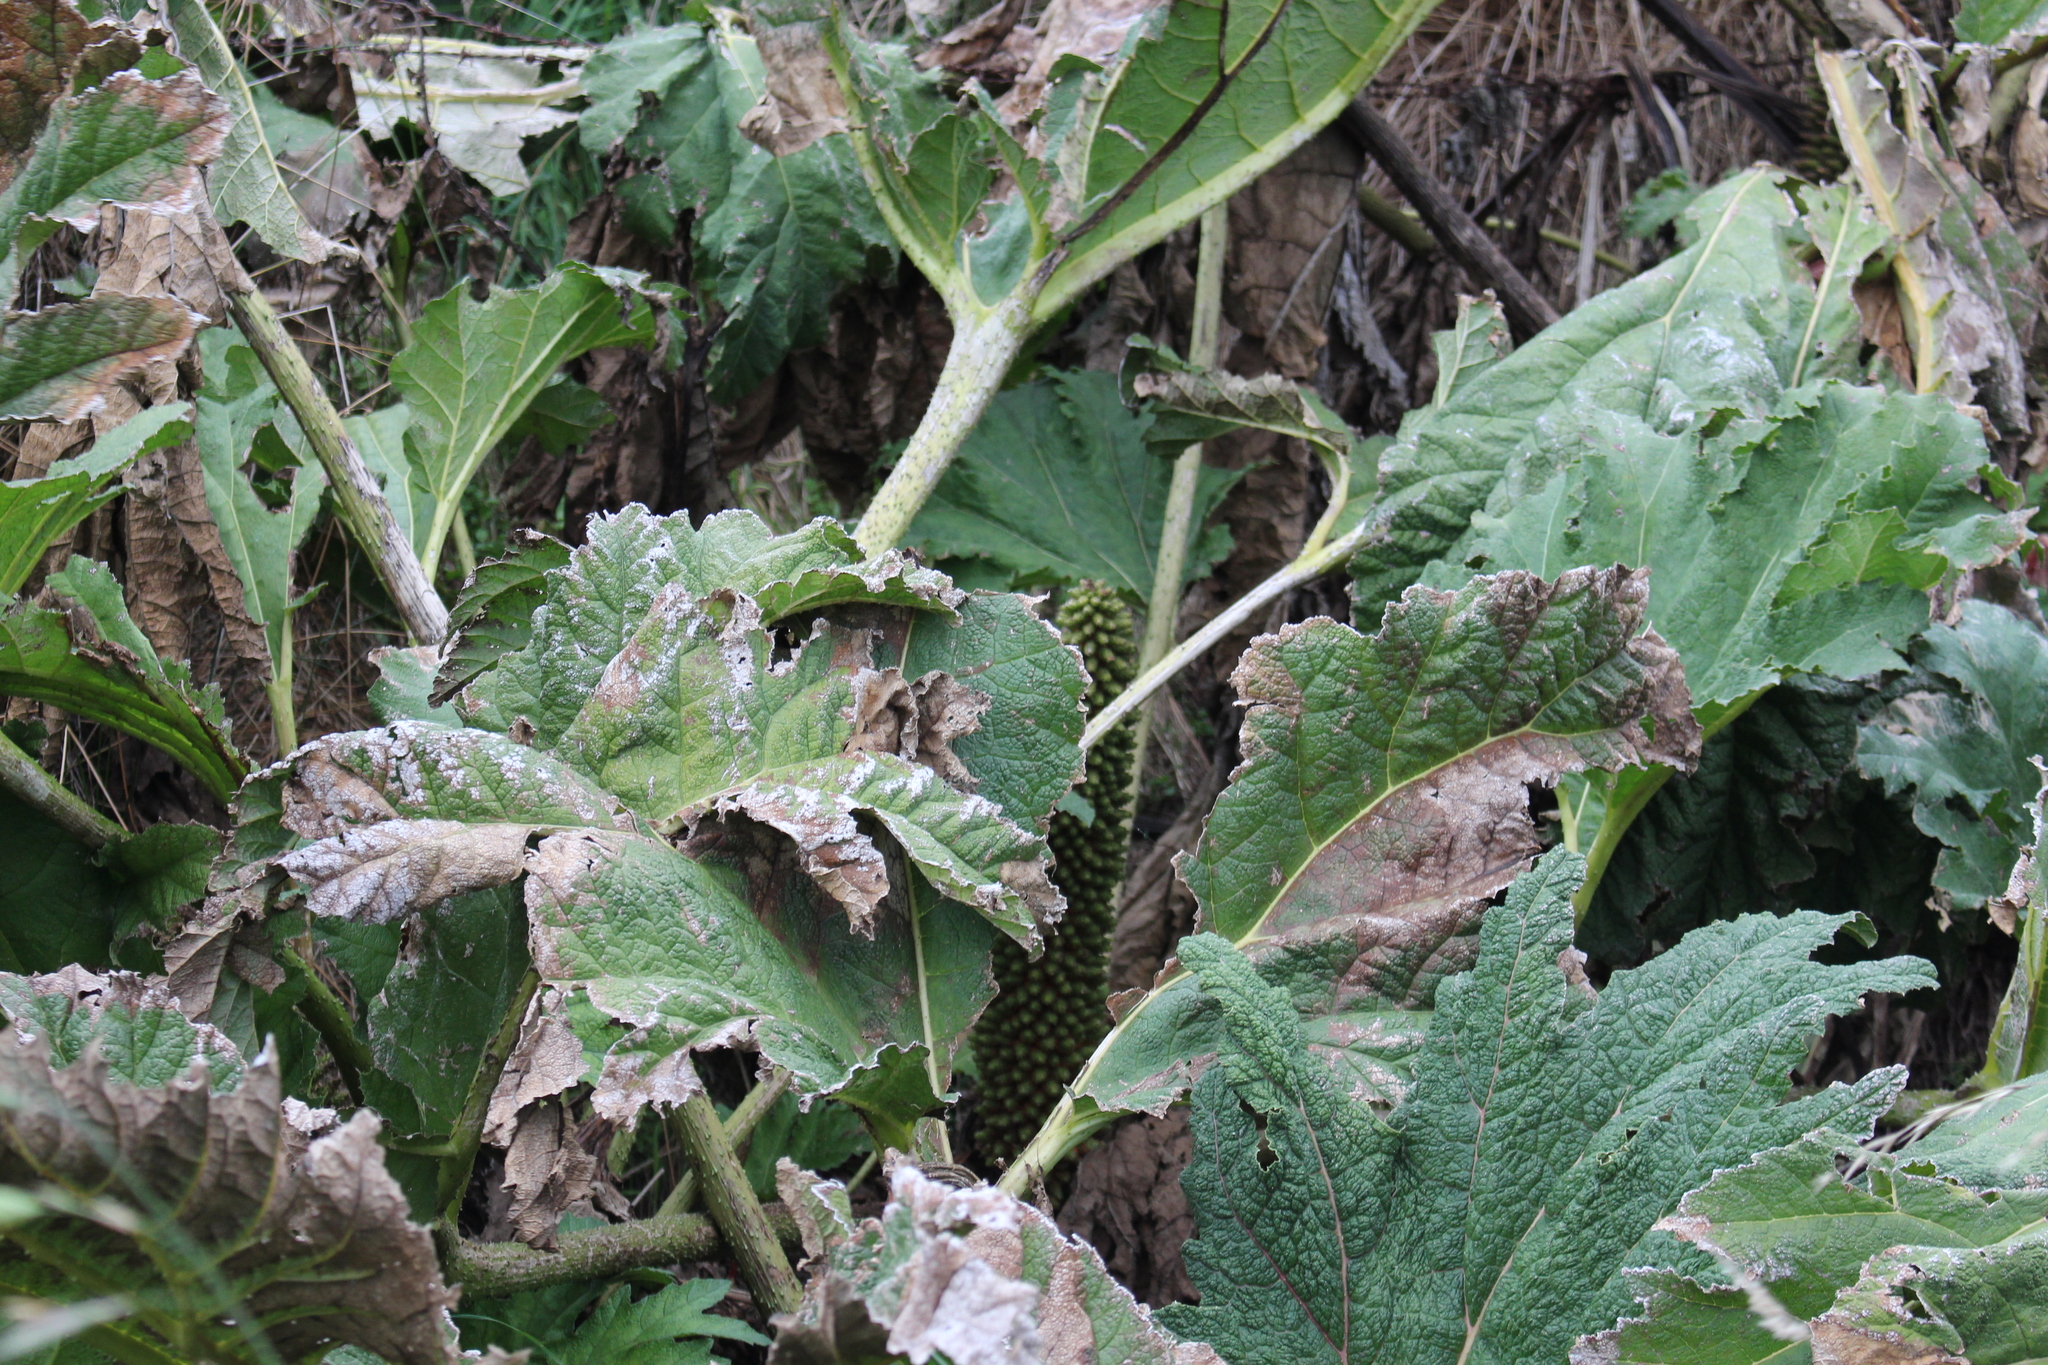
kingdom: Plantae
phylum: Tracheophyta
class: Magnoliopsida
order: Gunnerales
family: Gunneraceae
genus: Gunnera
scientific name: Gunnera tinctoria
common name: Giant-rhubarb
